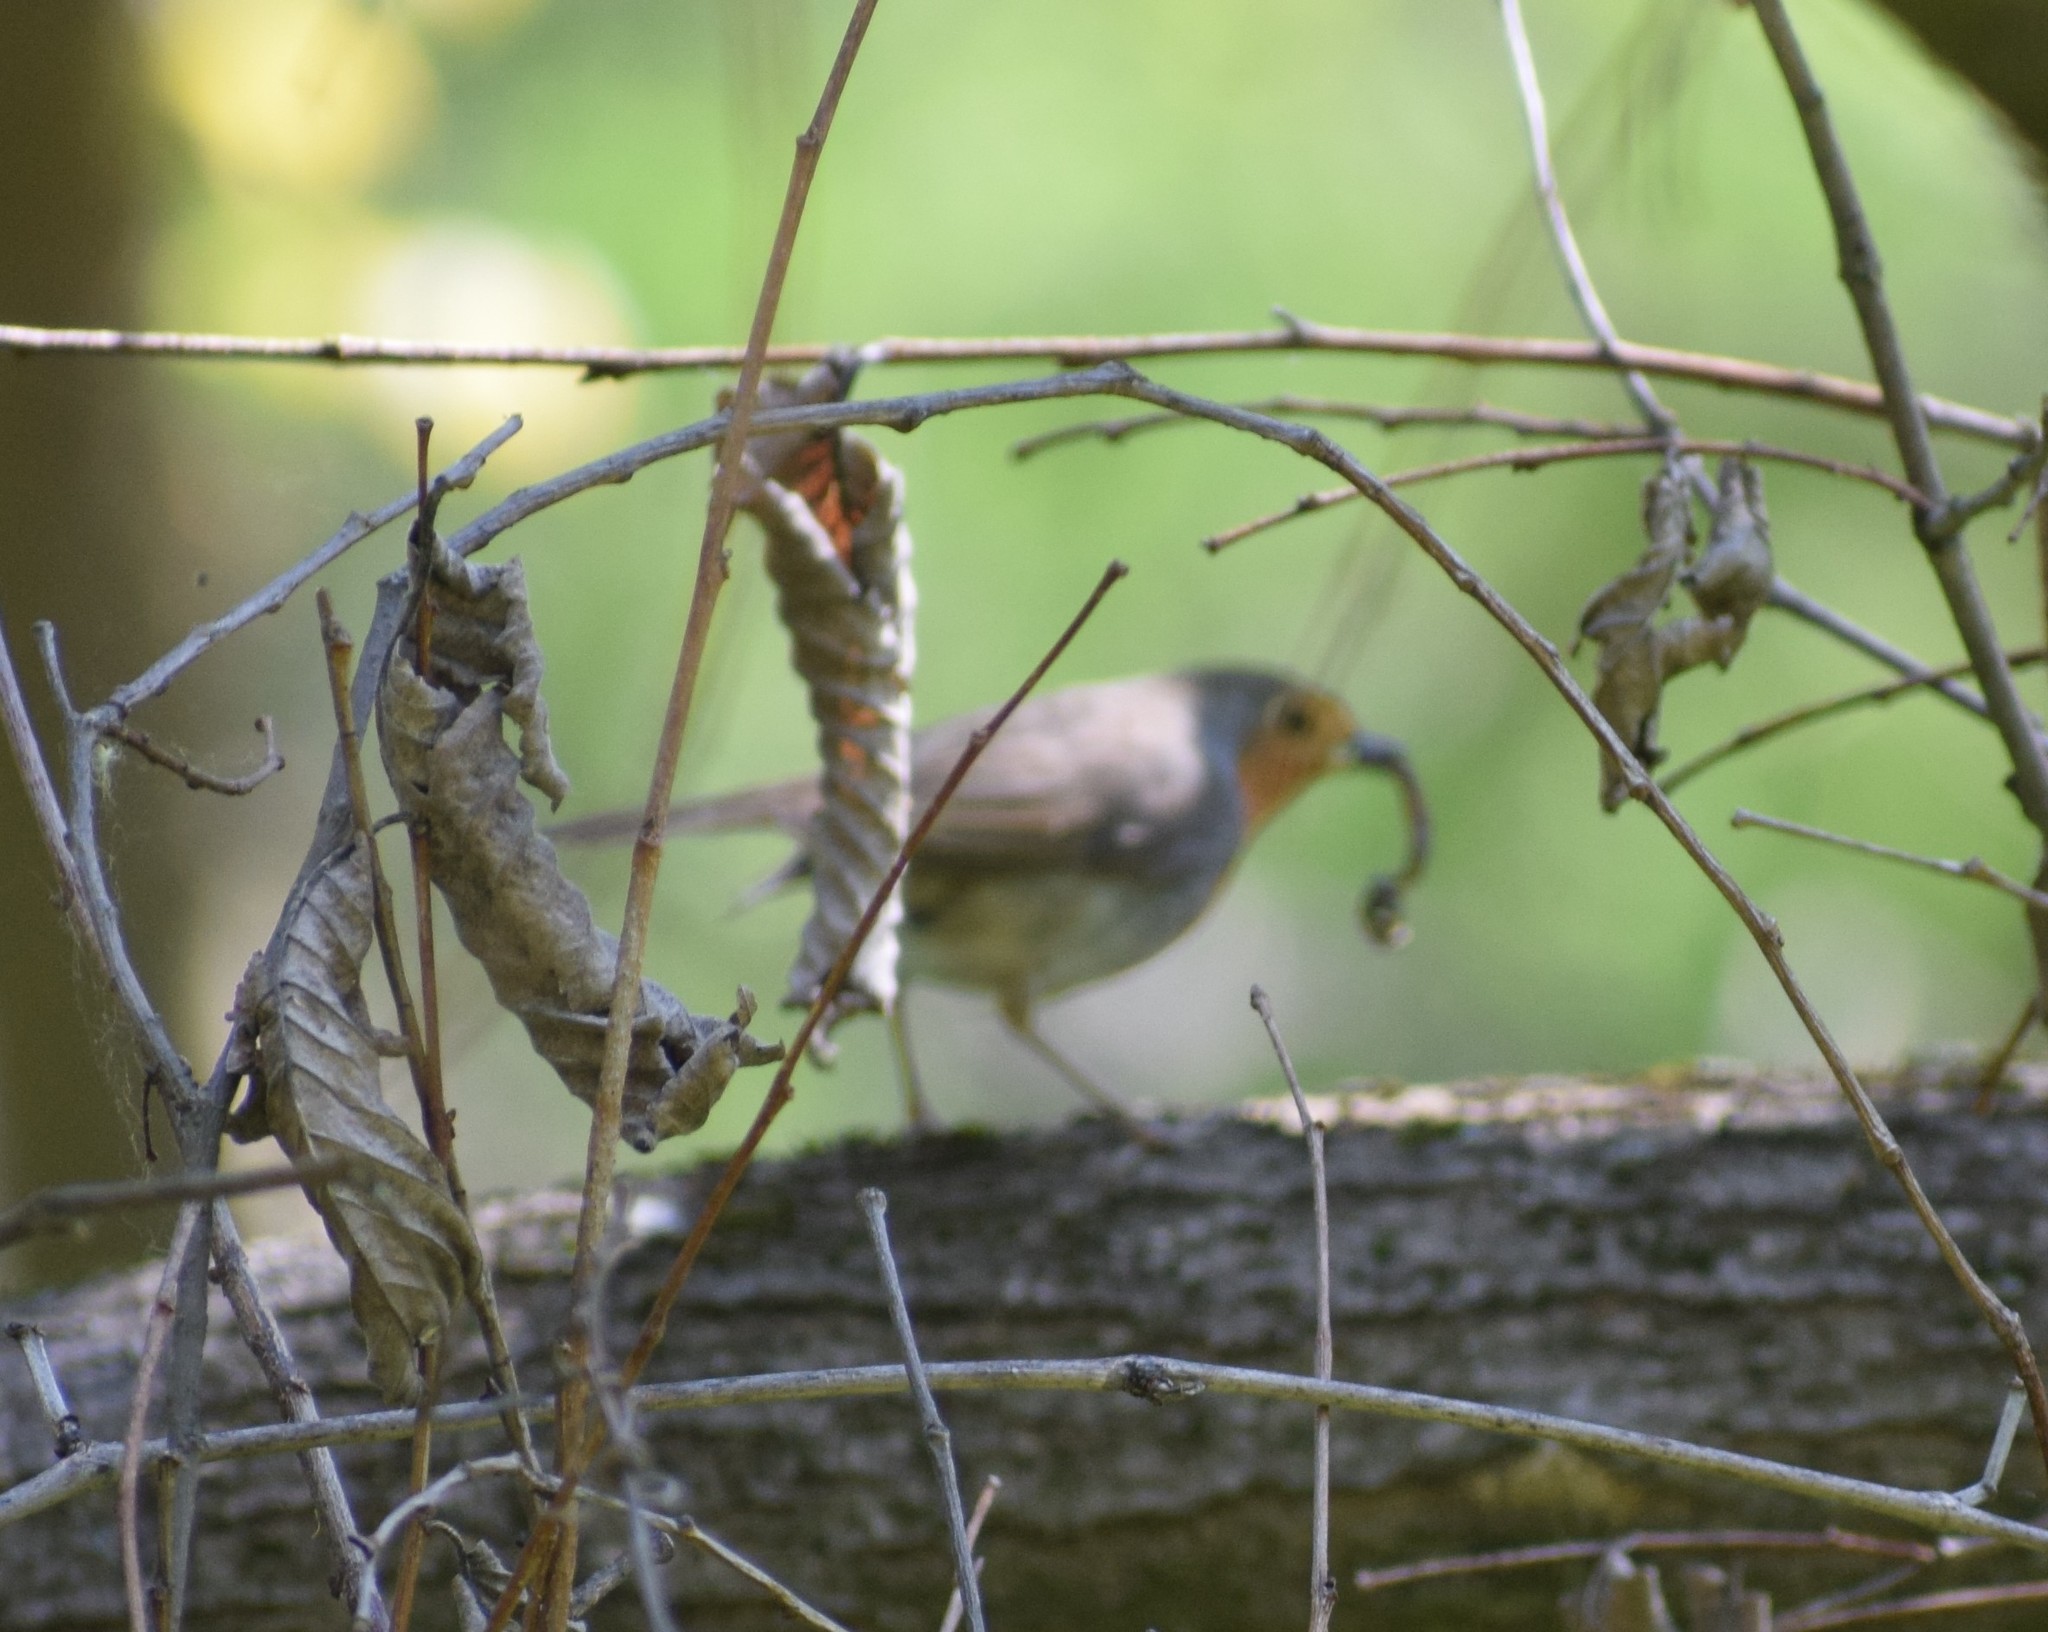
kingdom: Animalia
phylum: Chordata
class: Aves
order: Passeriformes
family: Muscicapidae
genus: Erithacus
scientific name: Erithacus rubecula
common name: European robin
